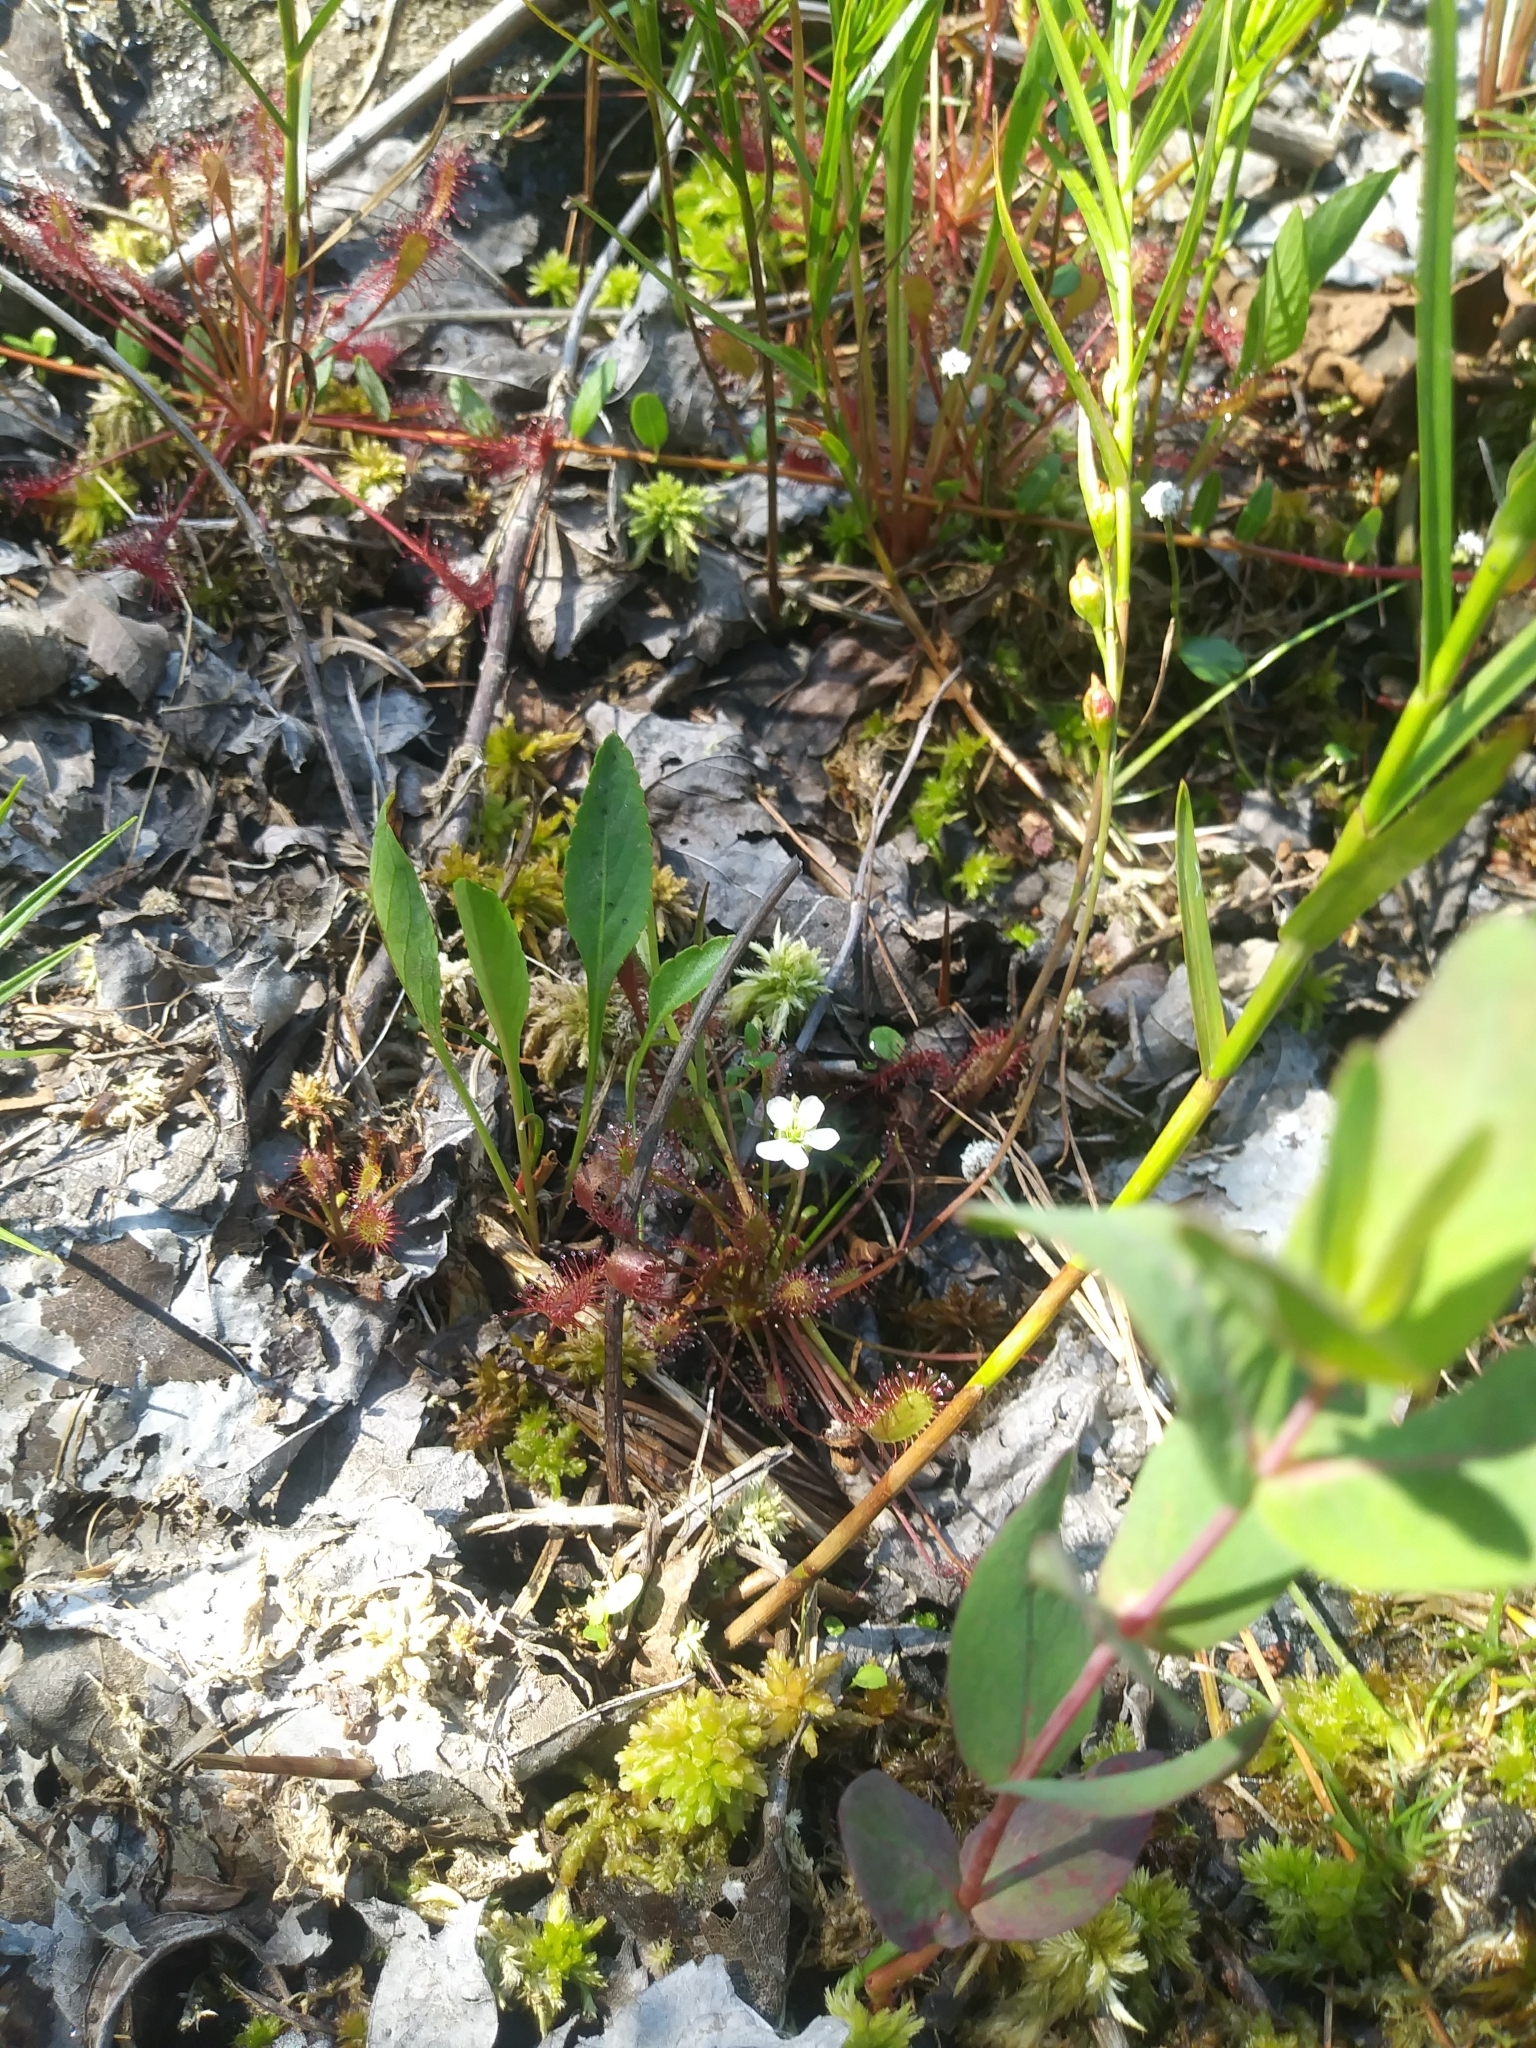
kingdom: Plantae
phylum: Tracheophyta
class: Magnoliopsida
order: Caryophyllales
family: Droseraceae
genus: Drosera
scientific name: Drosera intermedia
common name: Oblong-leaved sundew
